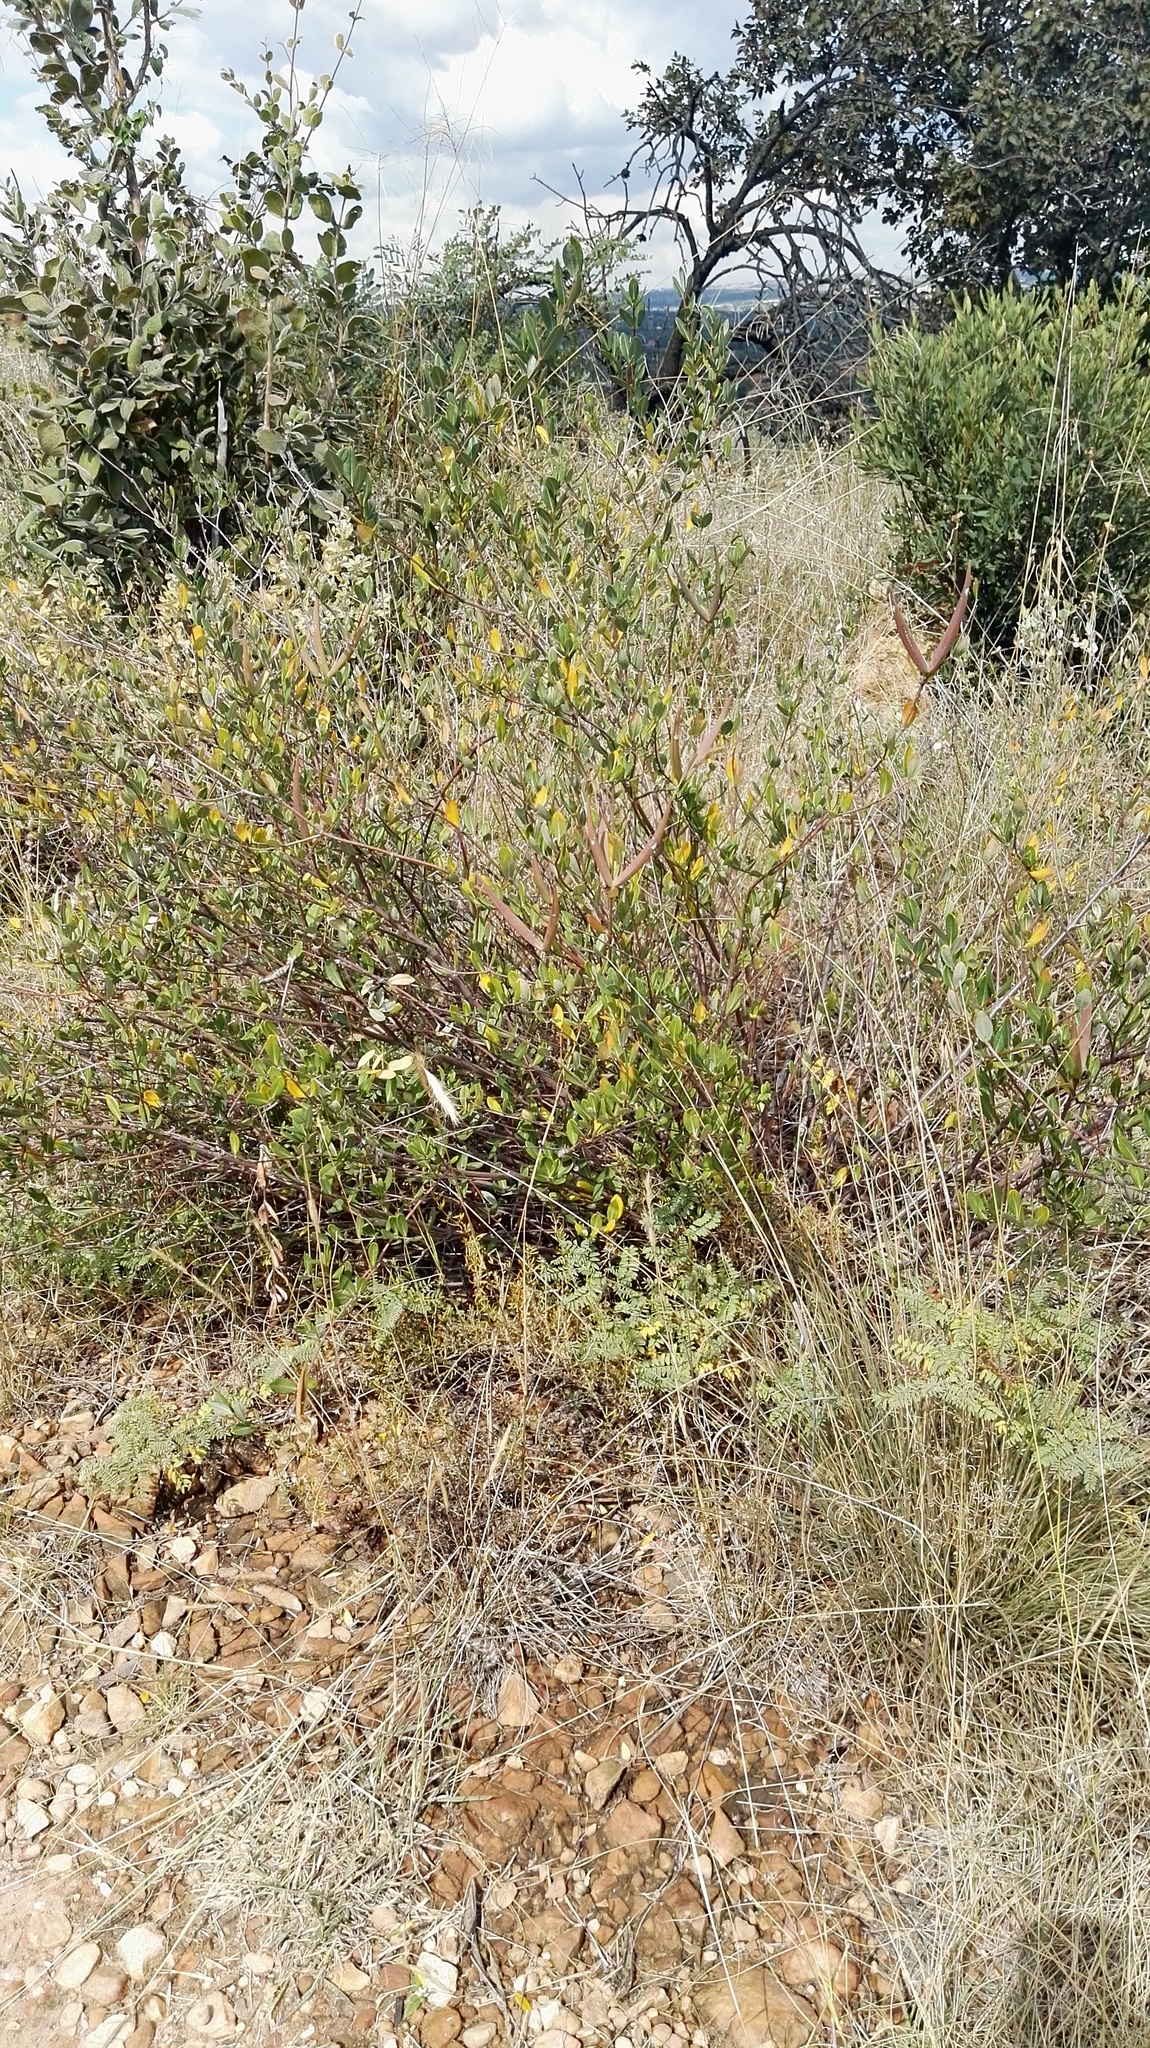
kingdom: Plantae
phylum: Tracheophyta
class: Magnoliopsida
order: Gentianales
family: Apocynaceae
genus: Cryptolepis
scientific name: Cryptolepis oblongifolia
